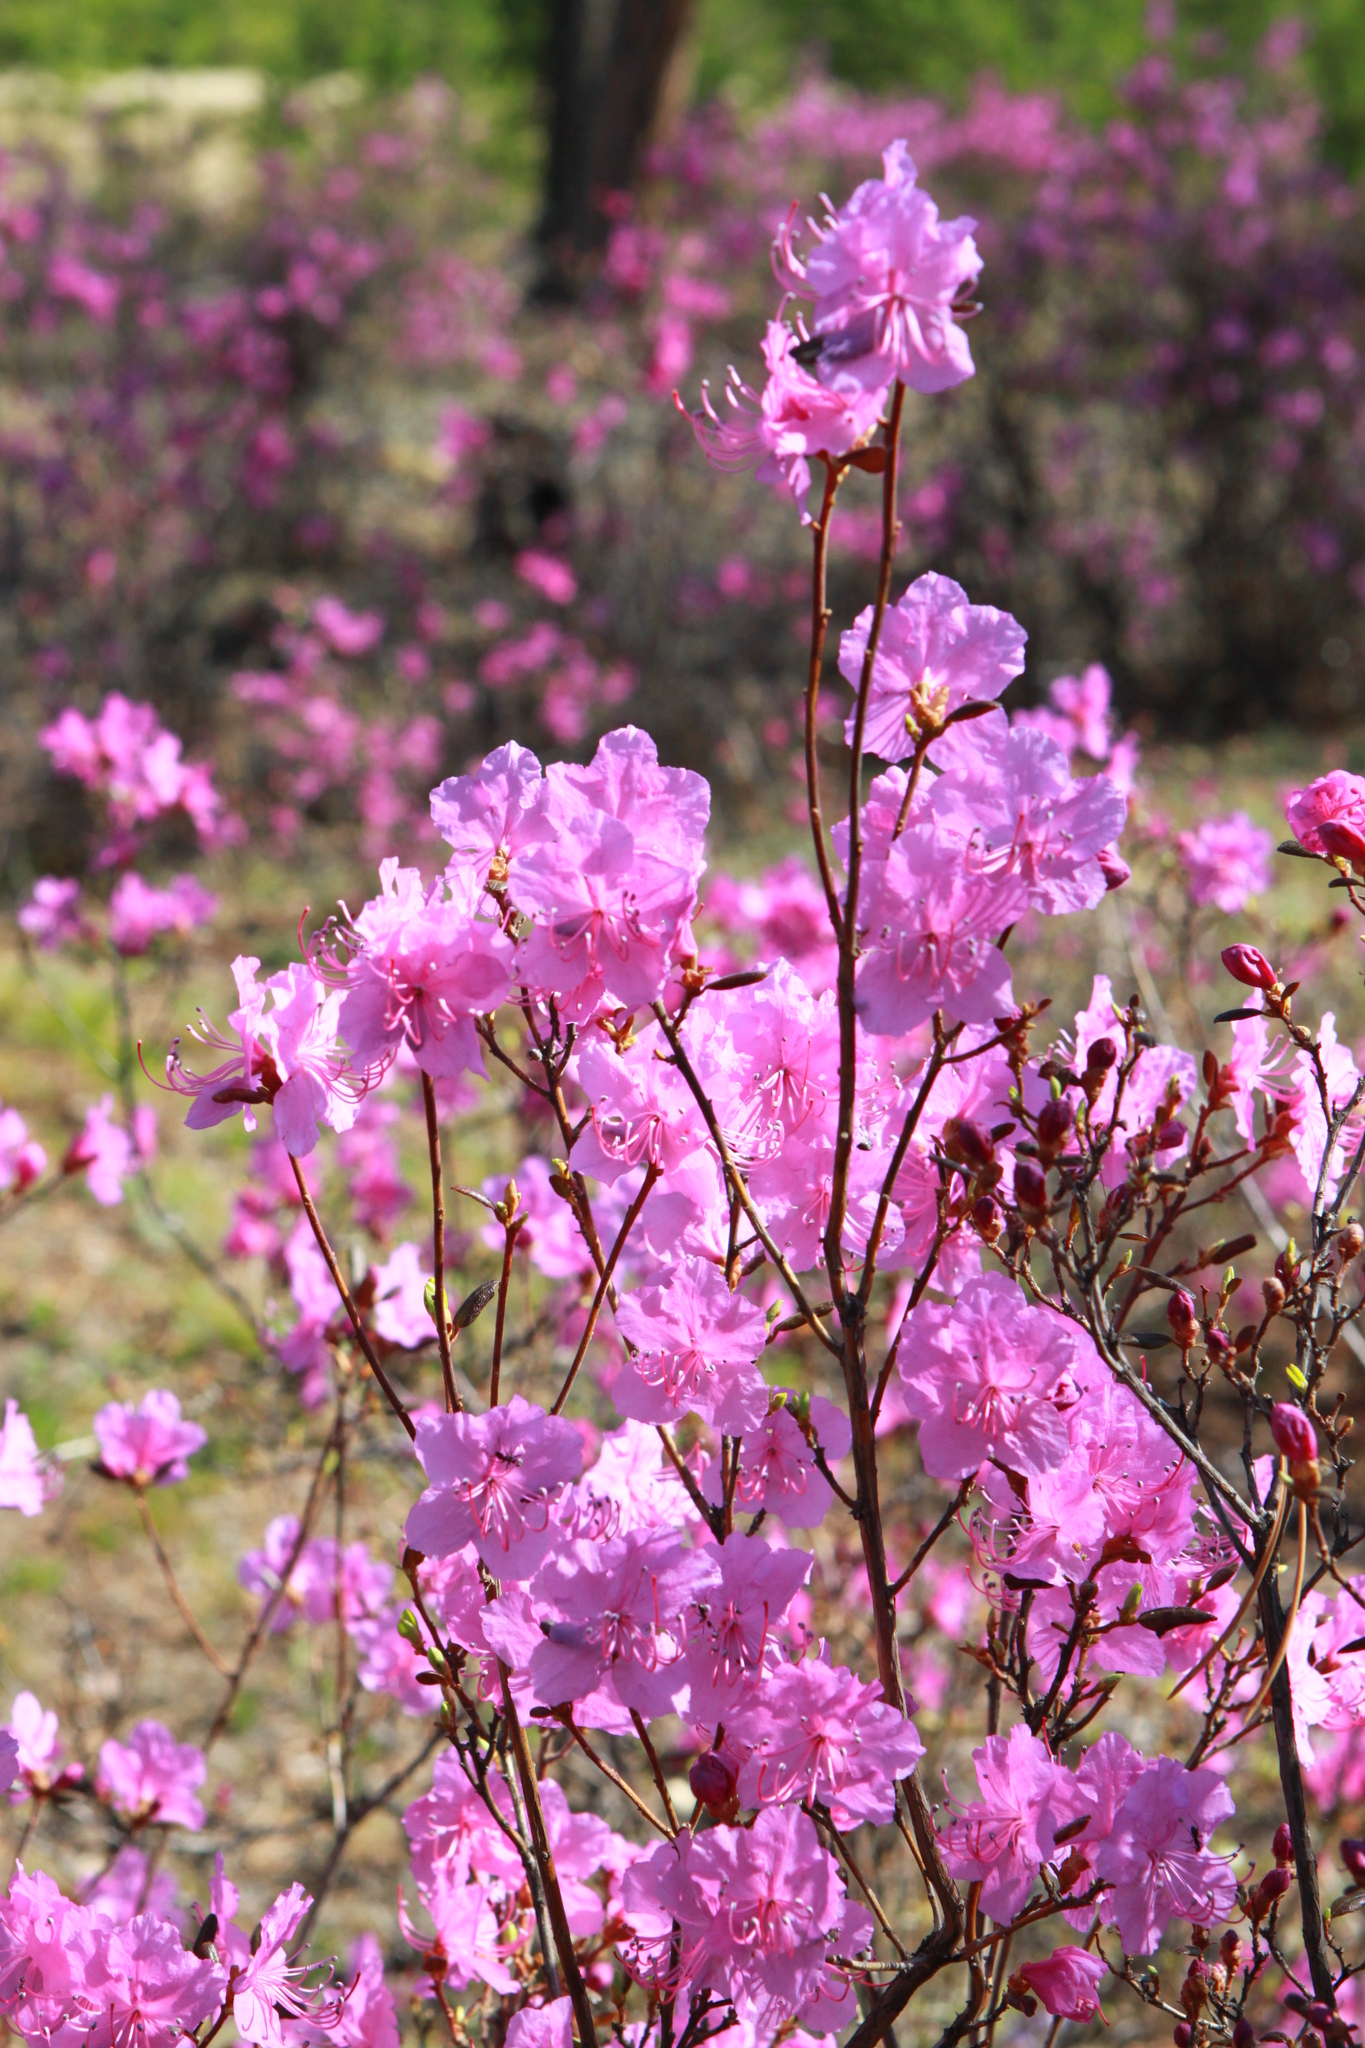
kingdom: Plantae
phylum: Tracheophyta
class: Magnoliopsida
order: Ericales
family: Ericaceae
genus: Rhododendron
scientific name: Rhododendron dauricum
